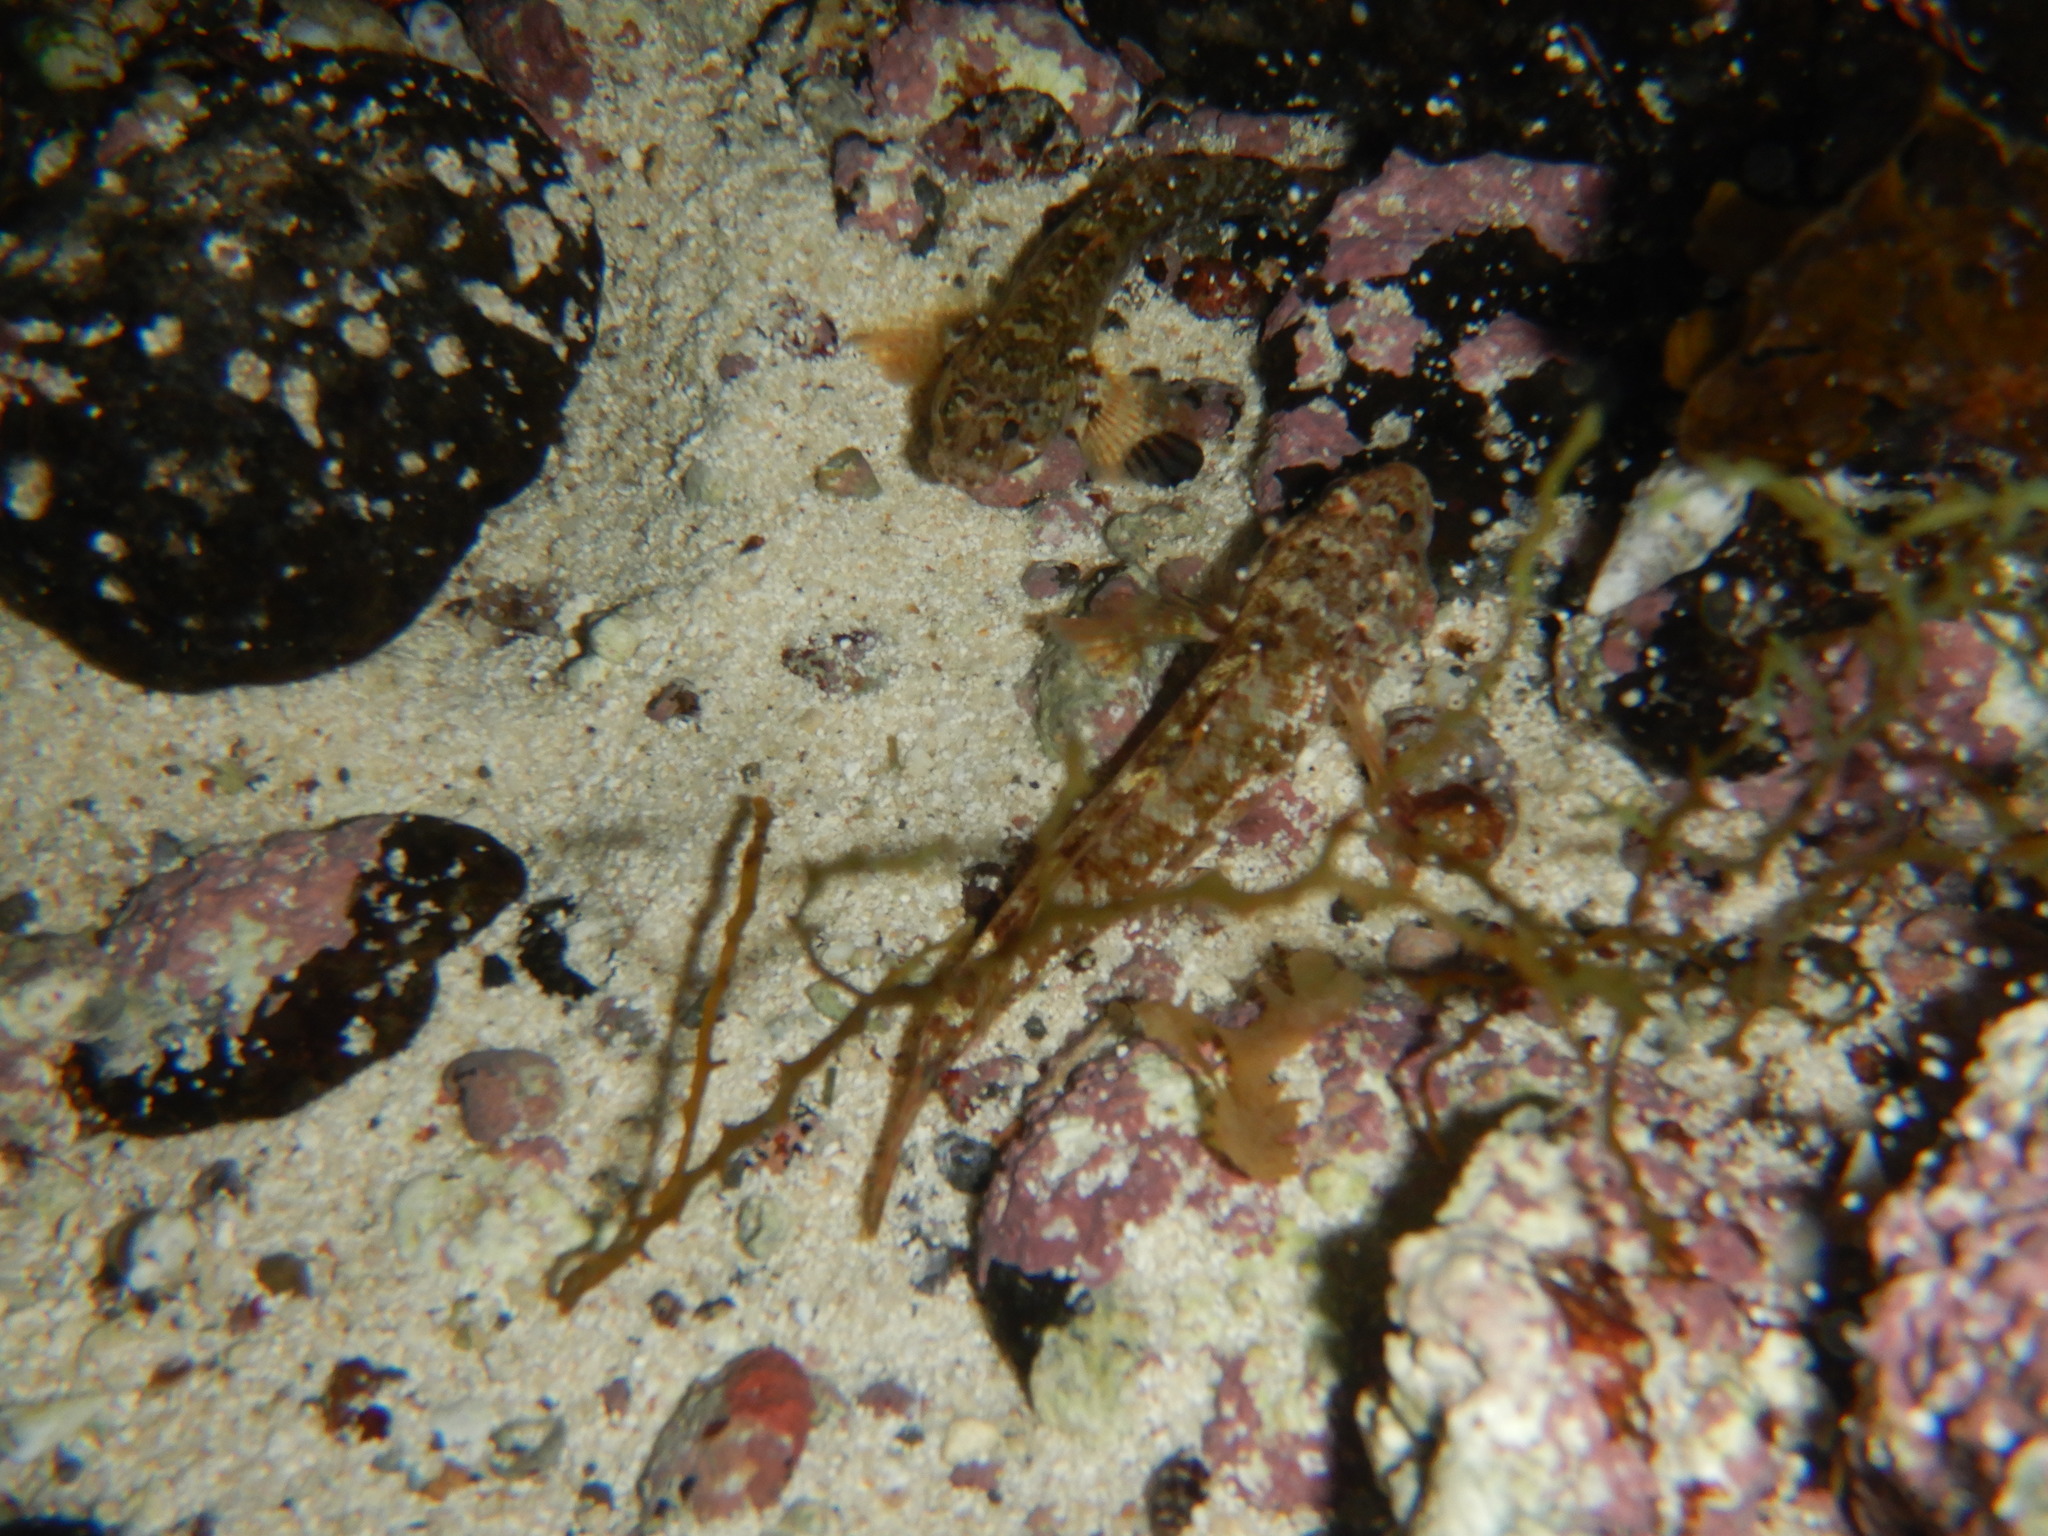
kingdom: Animalia
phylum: Chordata
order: Perciformes
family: Gobiidae
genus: Gobius
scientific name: Gobius paganellus
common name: Rock goby
